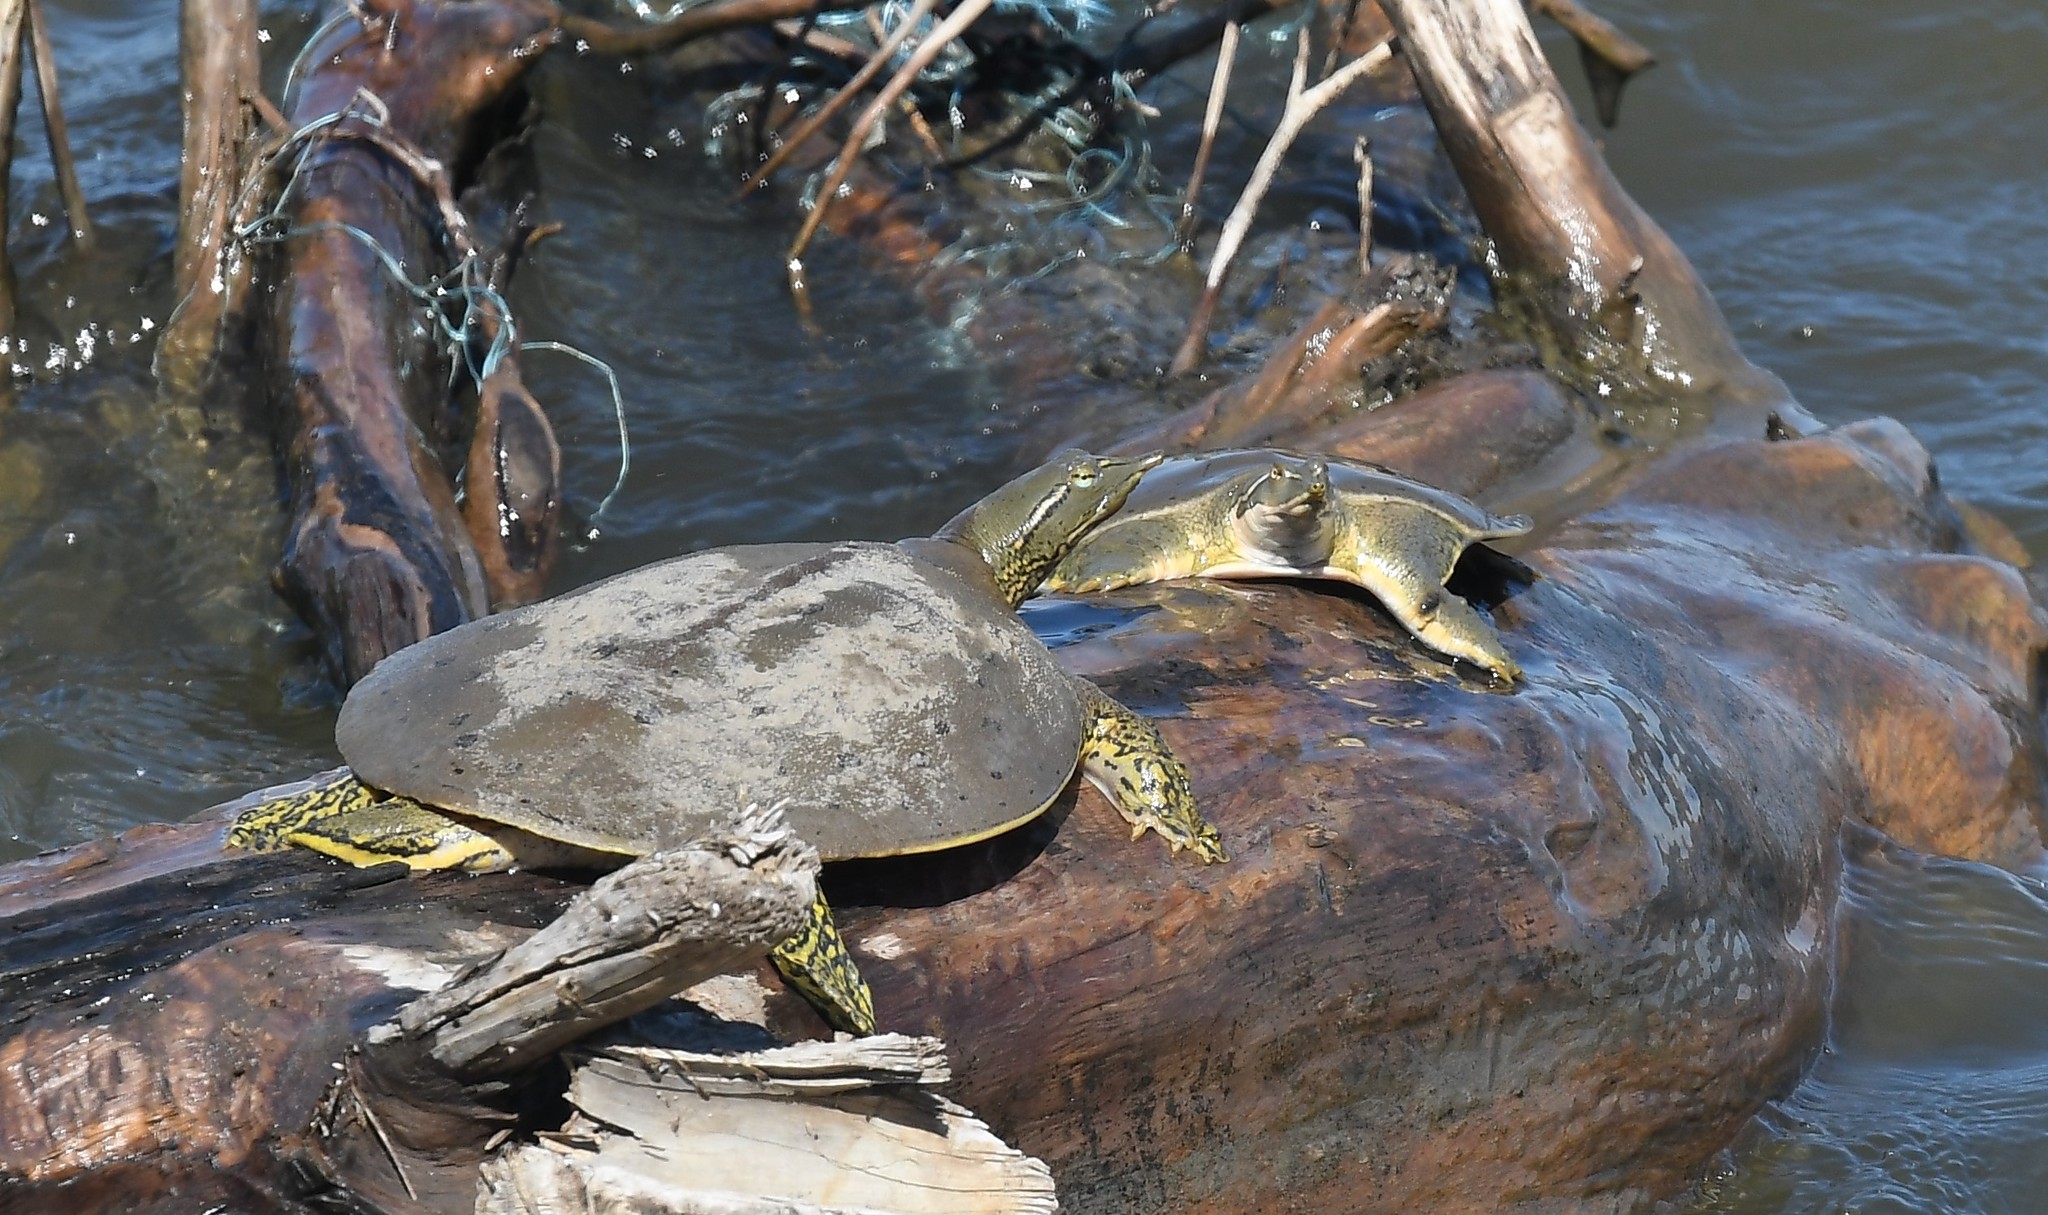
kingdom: Animalia
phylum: Chordata
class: Testudines
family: Trionychidae
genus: Apalone
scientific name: Apalone spinifera
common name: Spiny softshell turtle
